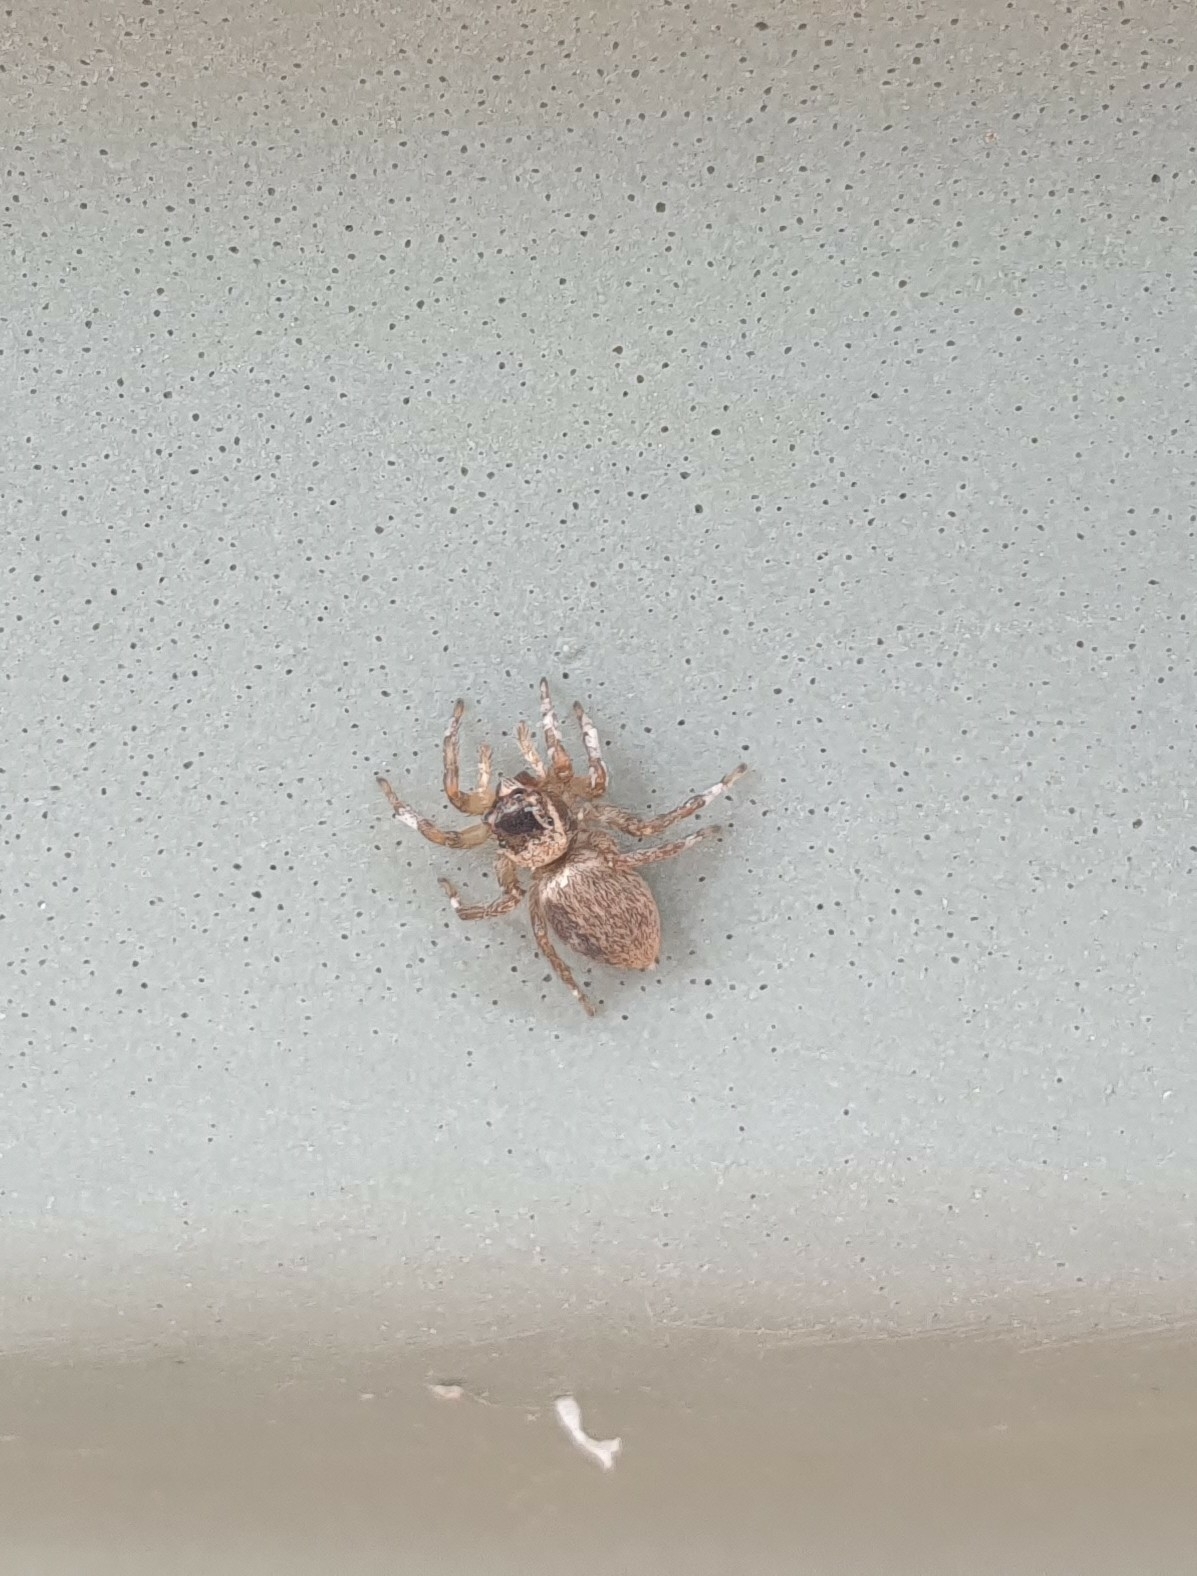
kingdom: Animalia
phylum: Arthropoda
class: Arachnida
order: Araneae
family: Salticidae
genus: Maratus
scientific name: Maratus griseus
